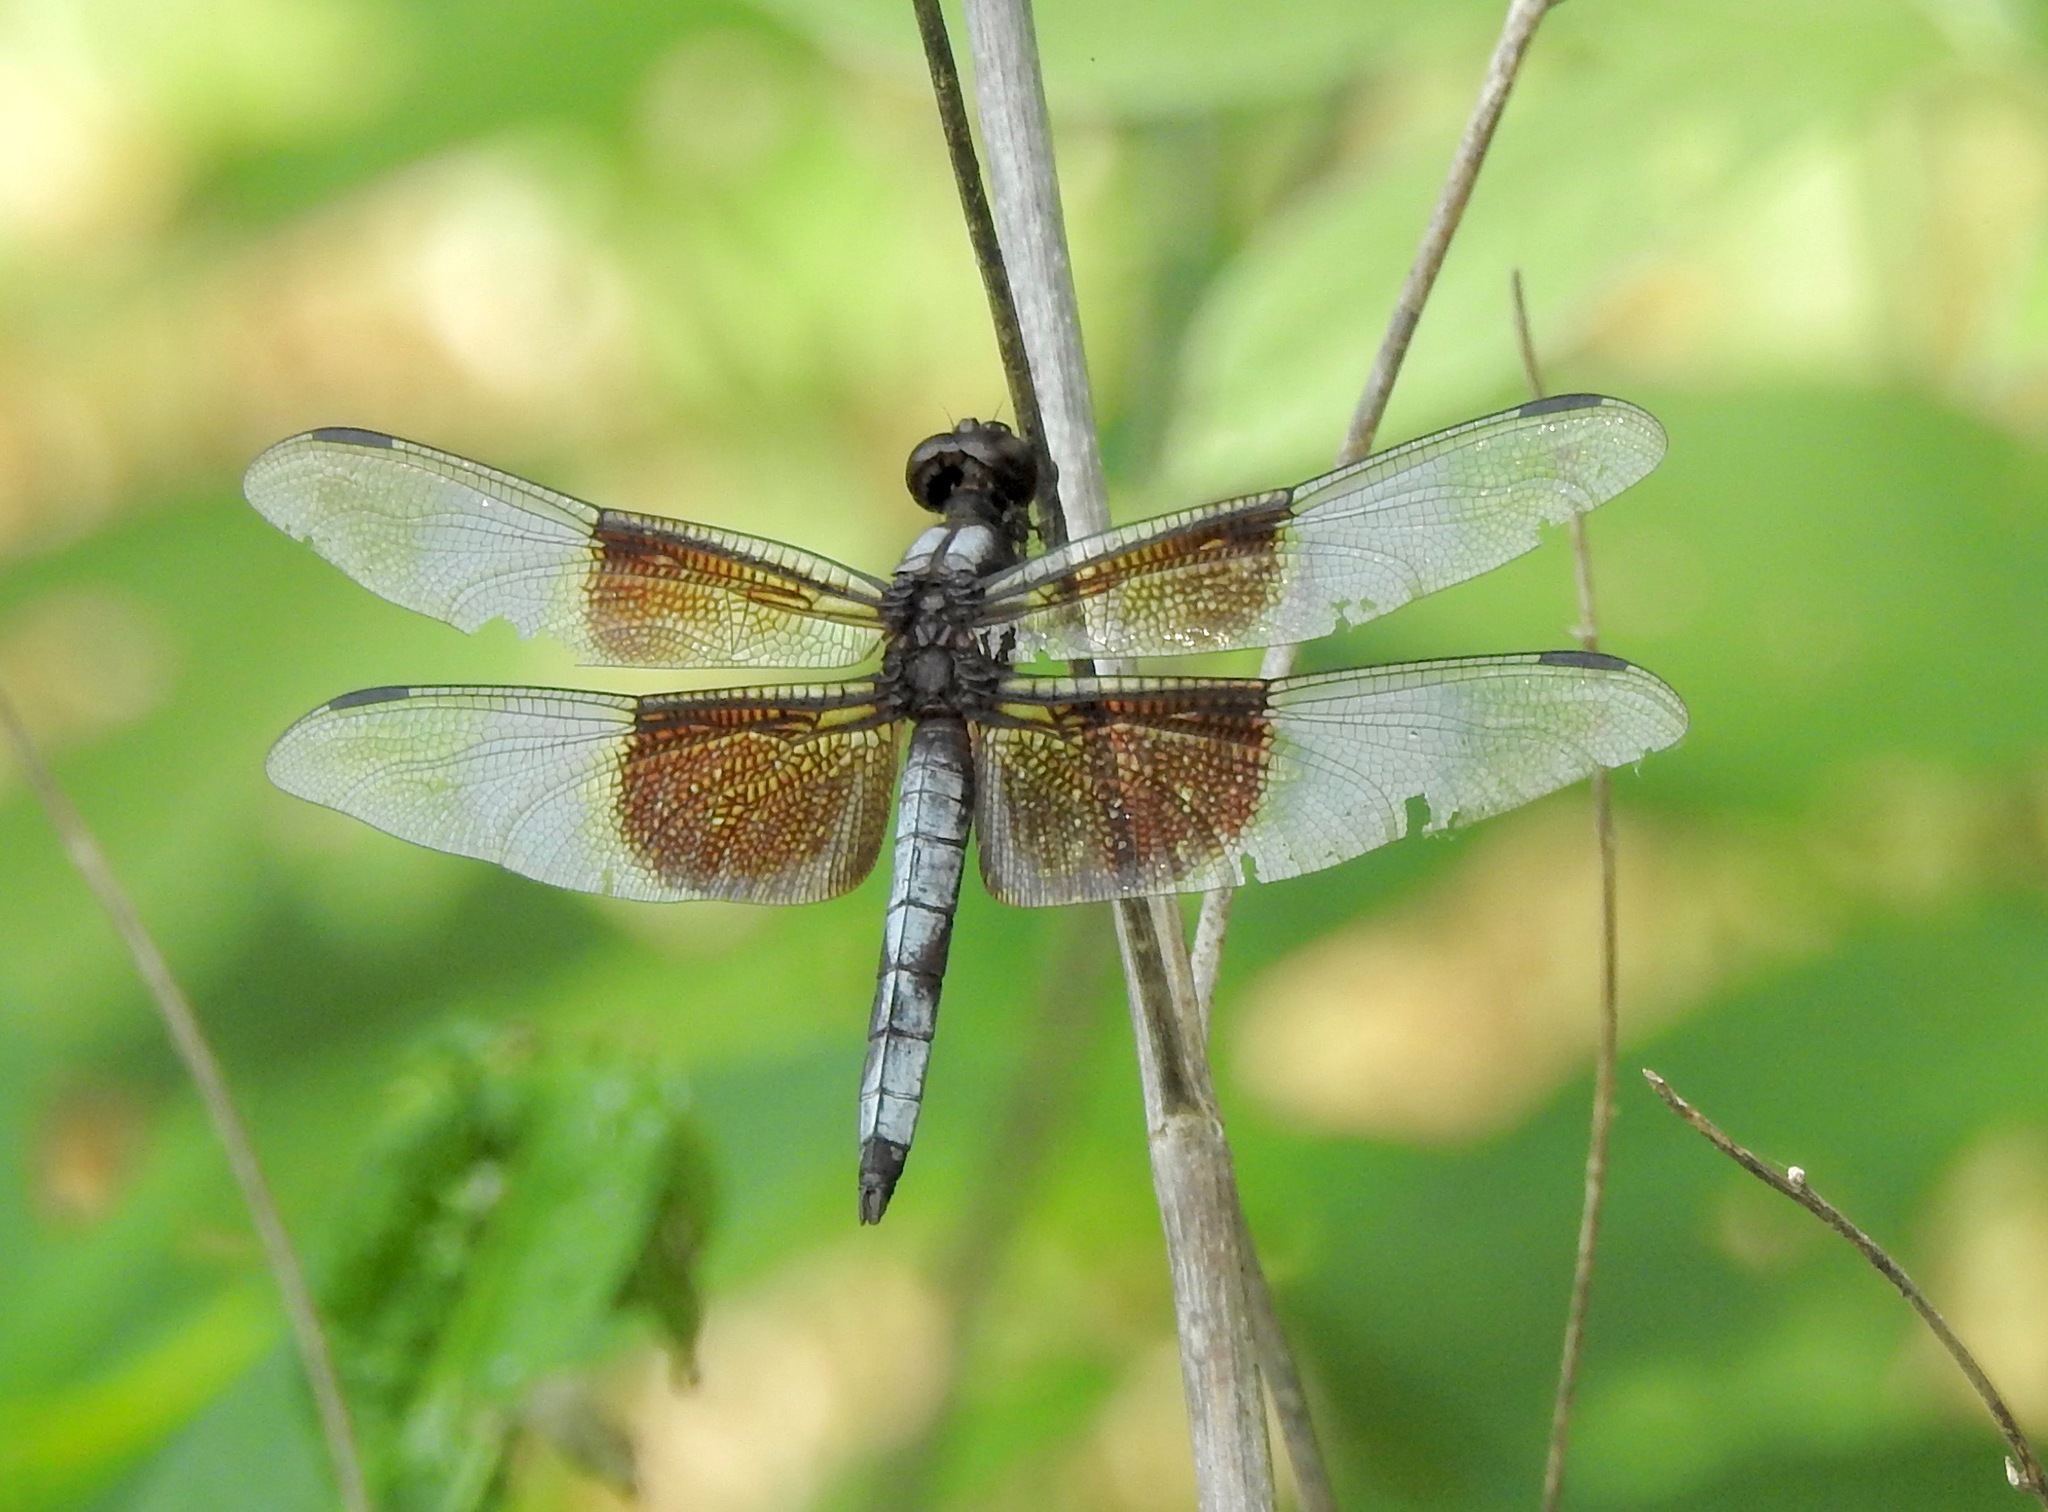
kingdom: Animalia
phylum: Arthropoda
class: Insecta
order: Odonata
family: Libellulidae
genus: Libellula
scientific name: Libellula luctuosa
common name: Widow skimmer
